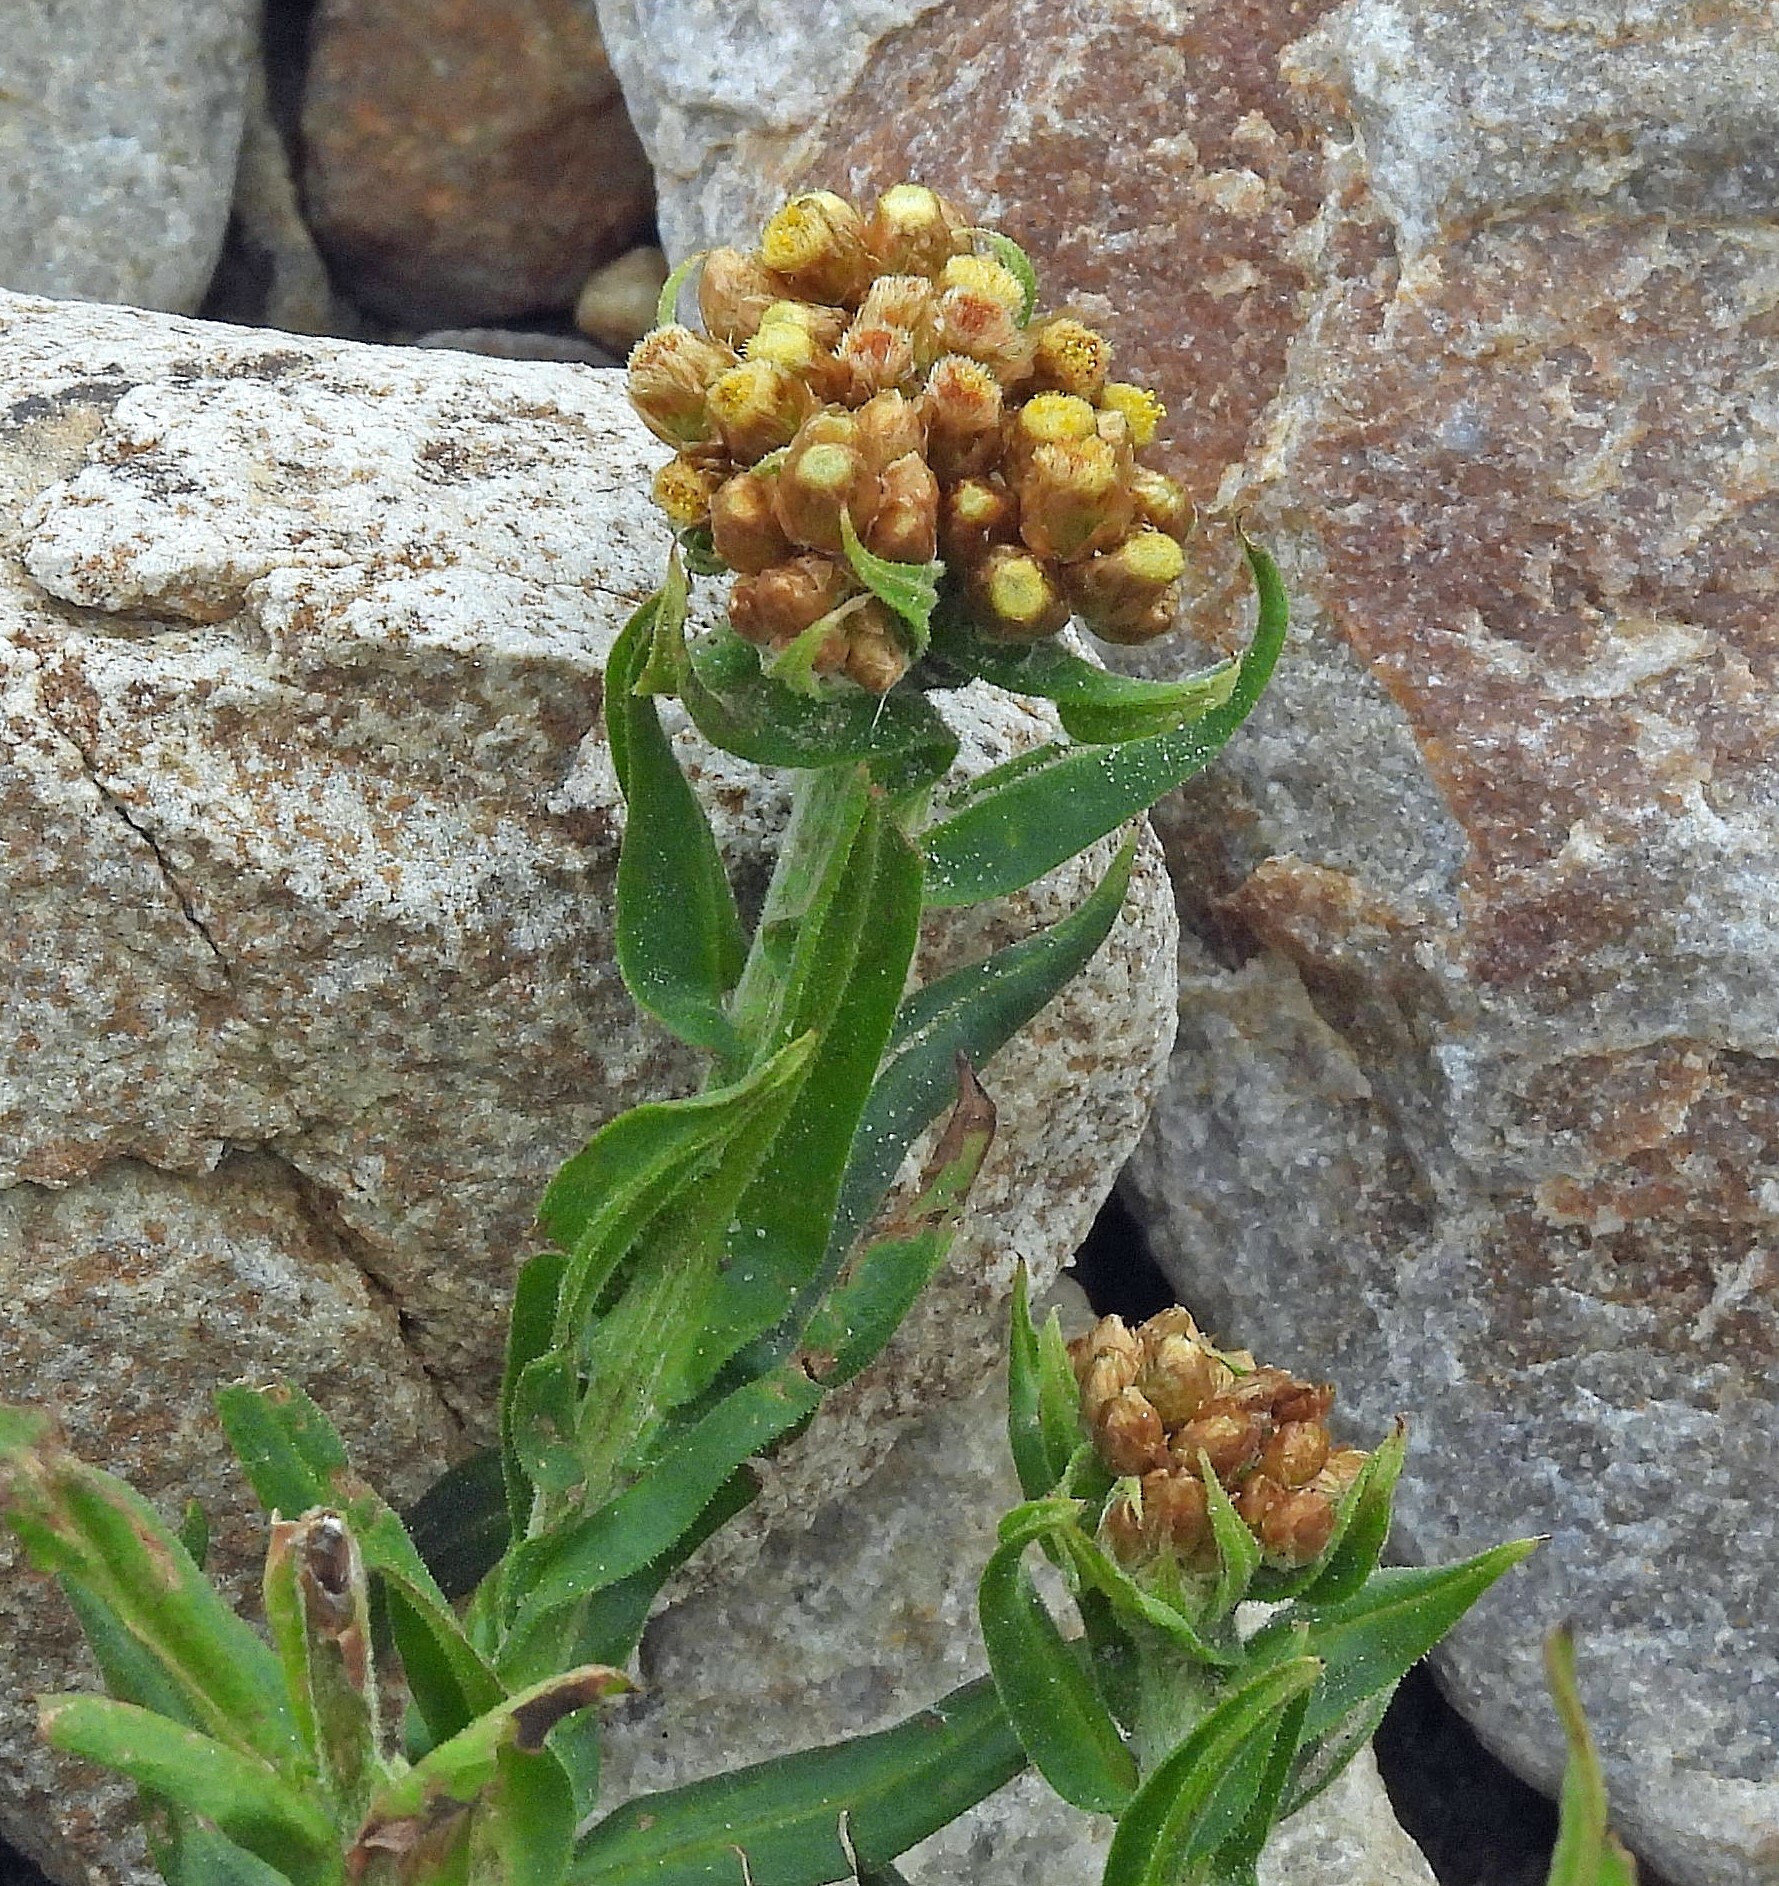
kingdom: Plantae
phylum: Tracheophyta
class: Magnoliopsida
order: Asterales
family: Asteraceae
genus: Pseudognaphalium
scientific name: Pseudognaphalium psilophyllum
